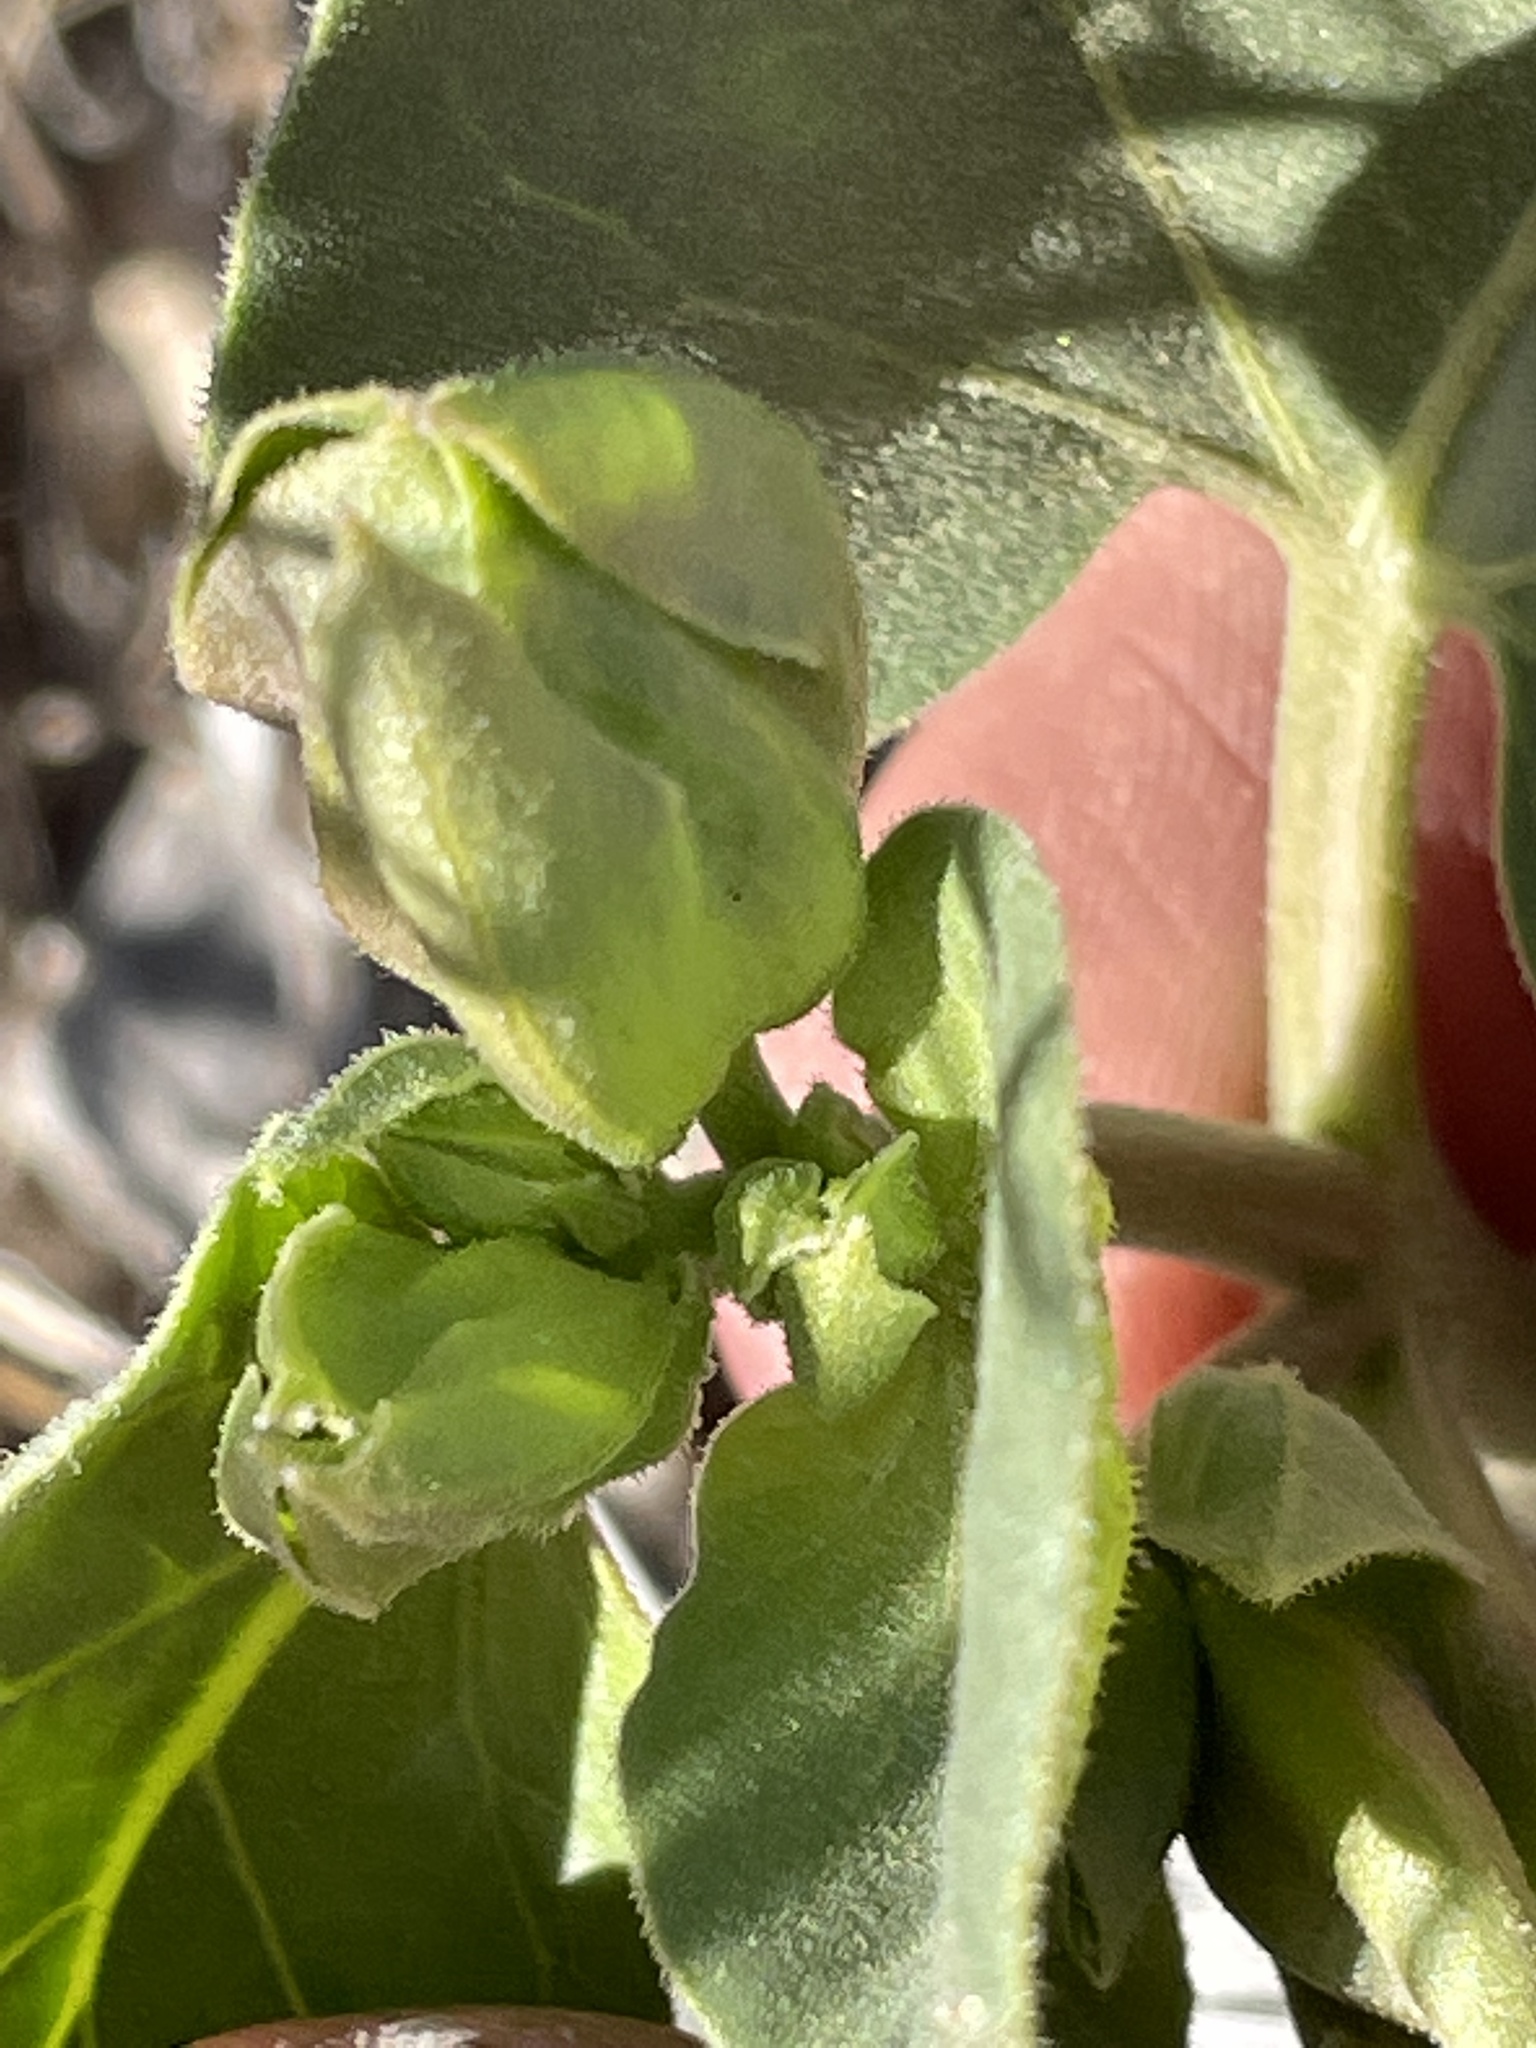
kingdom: Plantae
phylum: Tracheophyta
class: Magnoliopsida
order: Caryophyllales
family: Nyctaginaceae
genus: Mirabilis
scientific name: Mirabilis multiflora
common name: Froebel's four-o'clock
